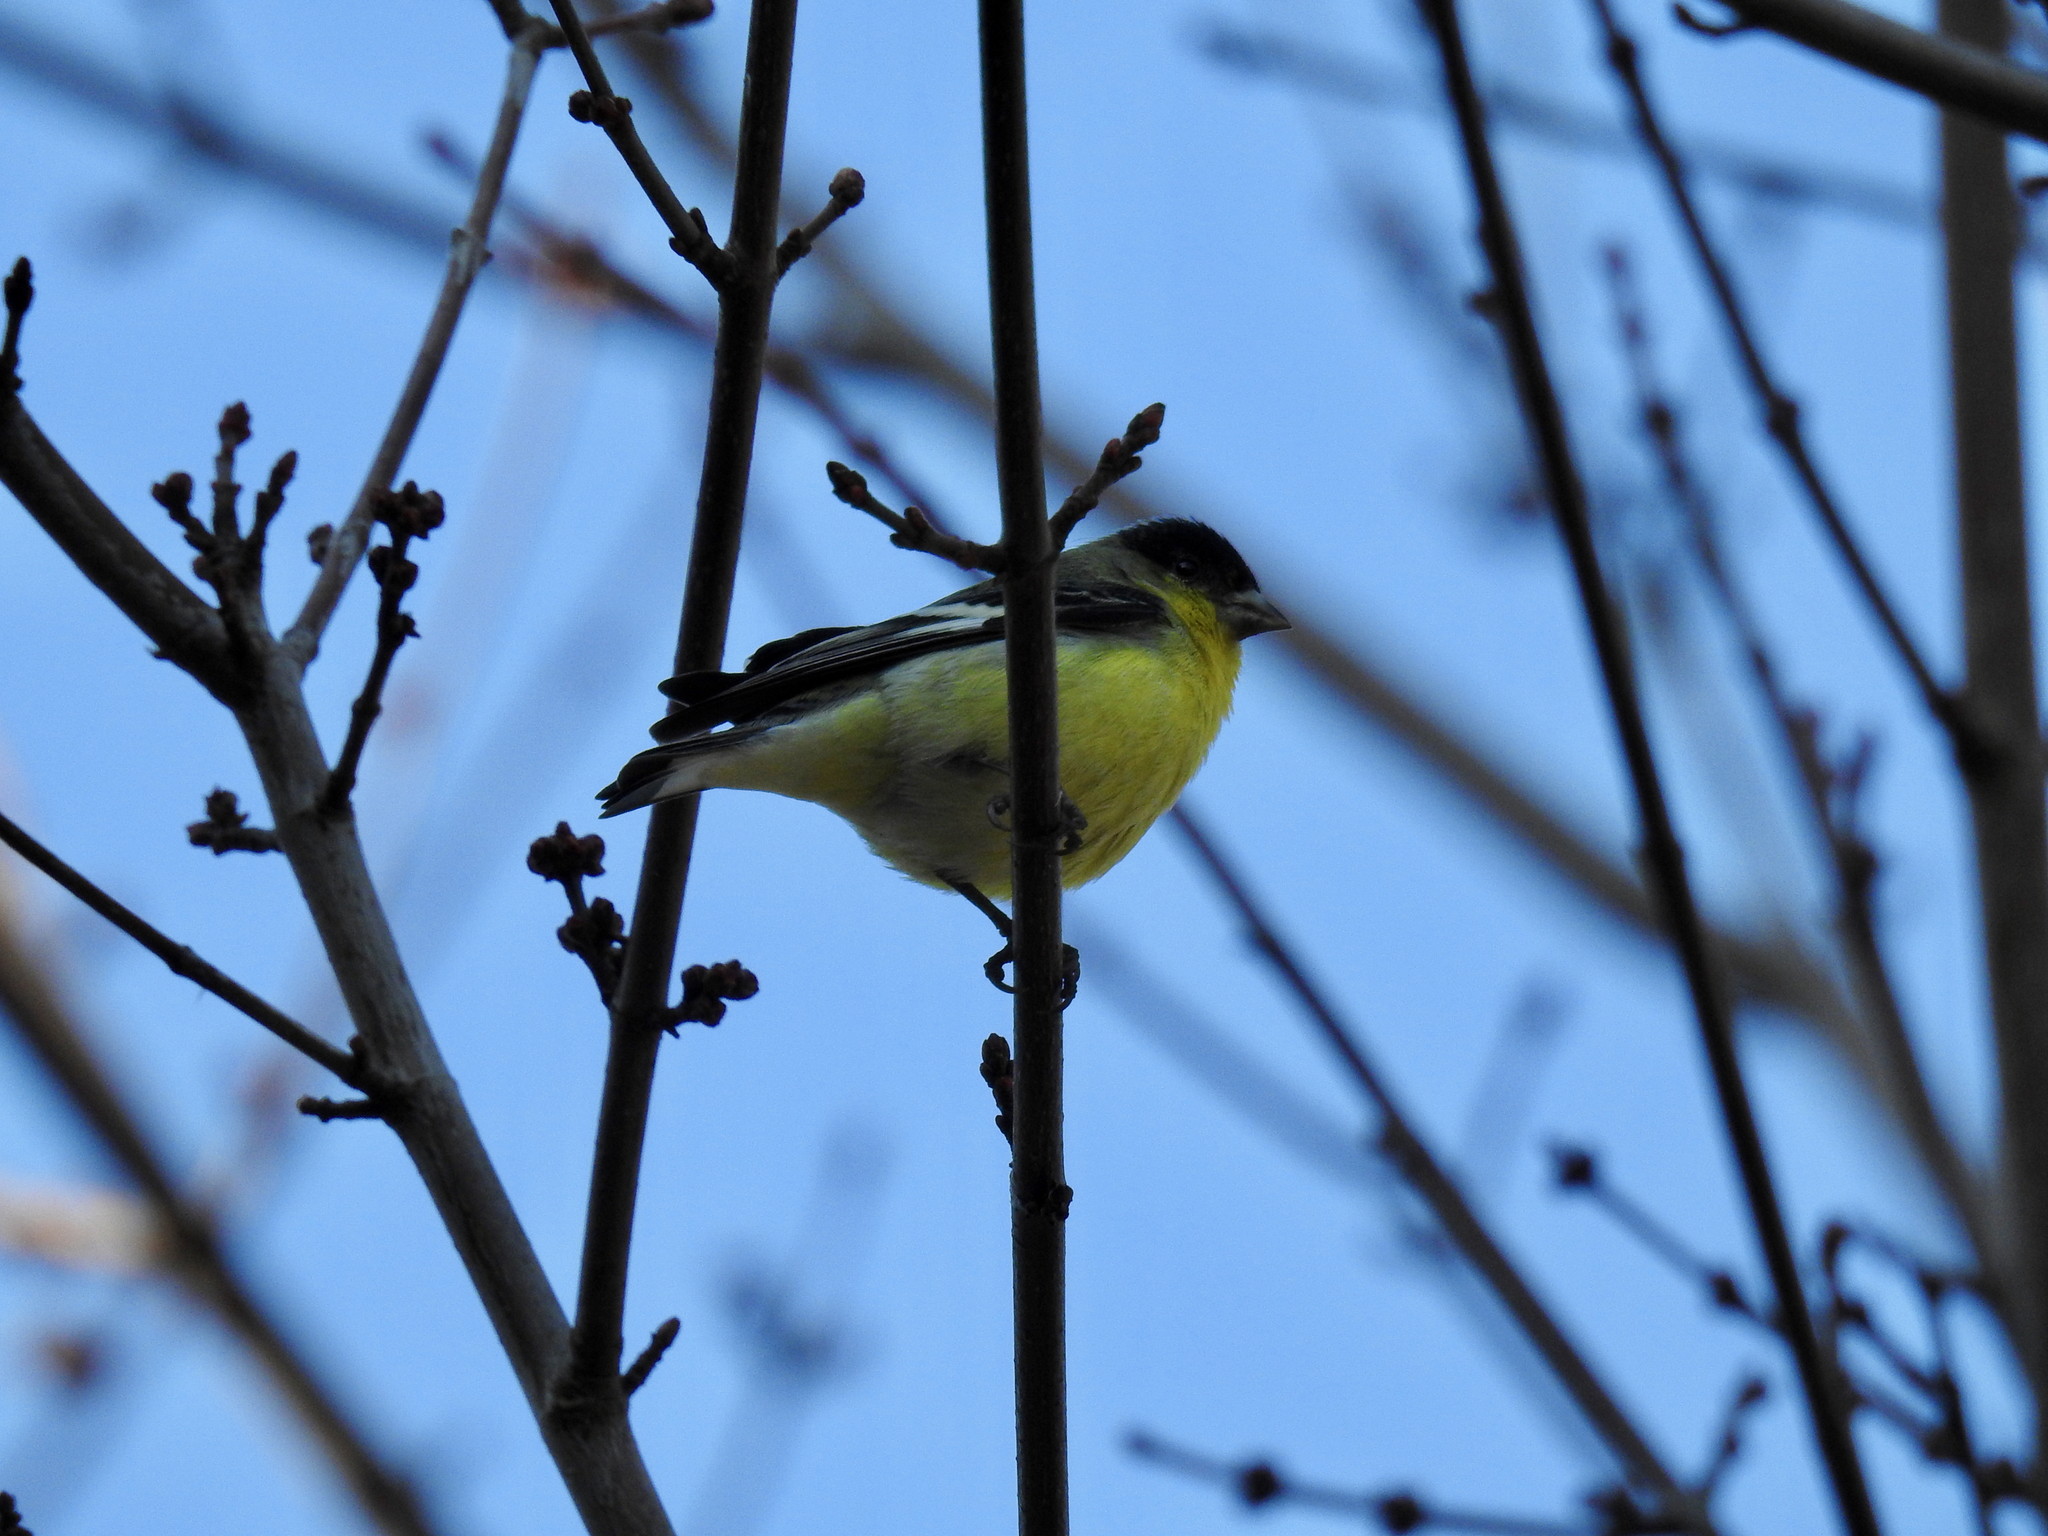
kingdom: Animalia
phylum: Chordata
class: Aves
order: Passeriformes
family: Fringillidae
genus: Spinus
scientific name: Spinus psaltria
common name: Lesser goldfinch
